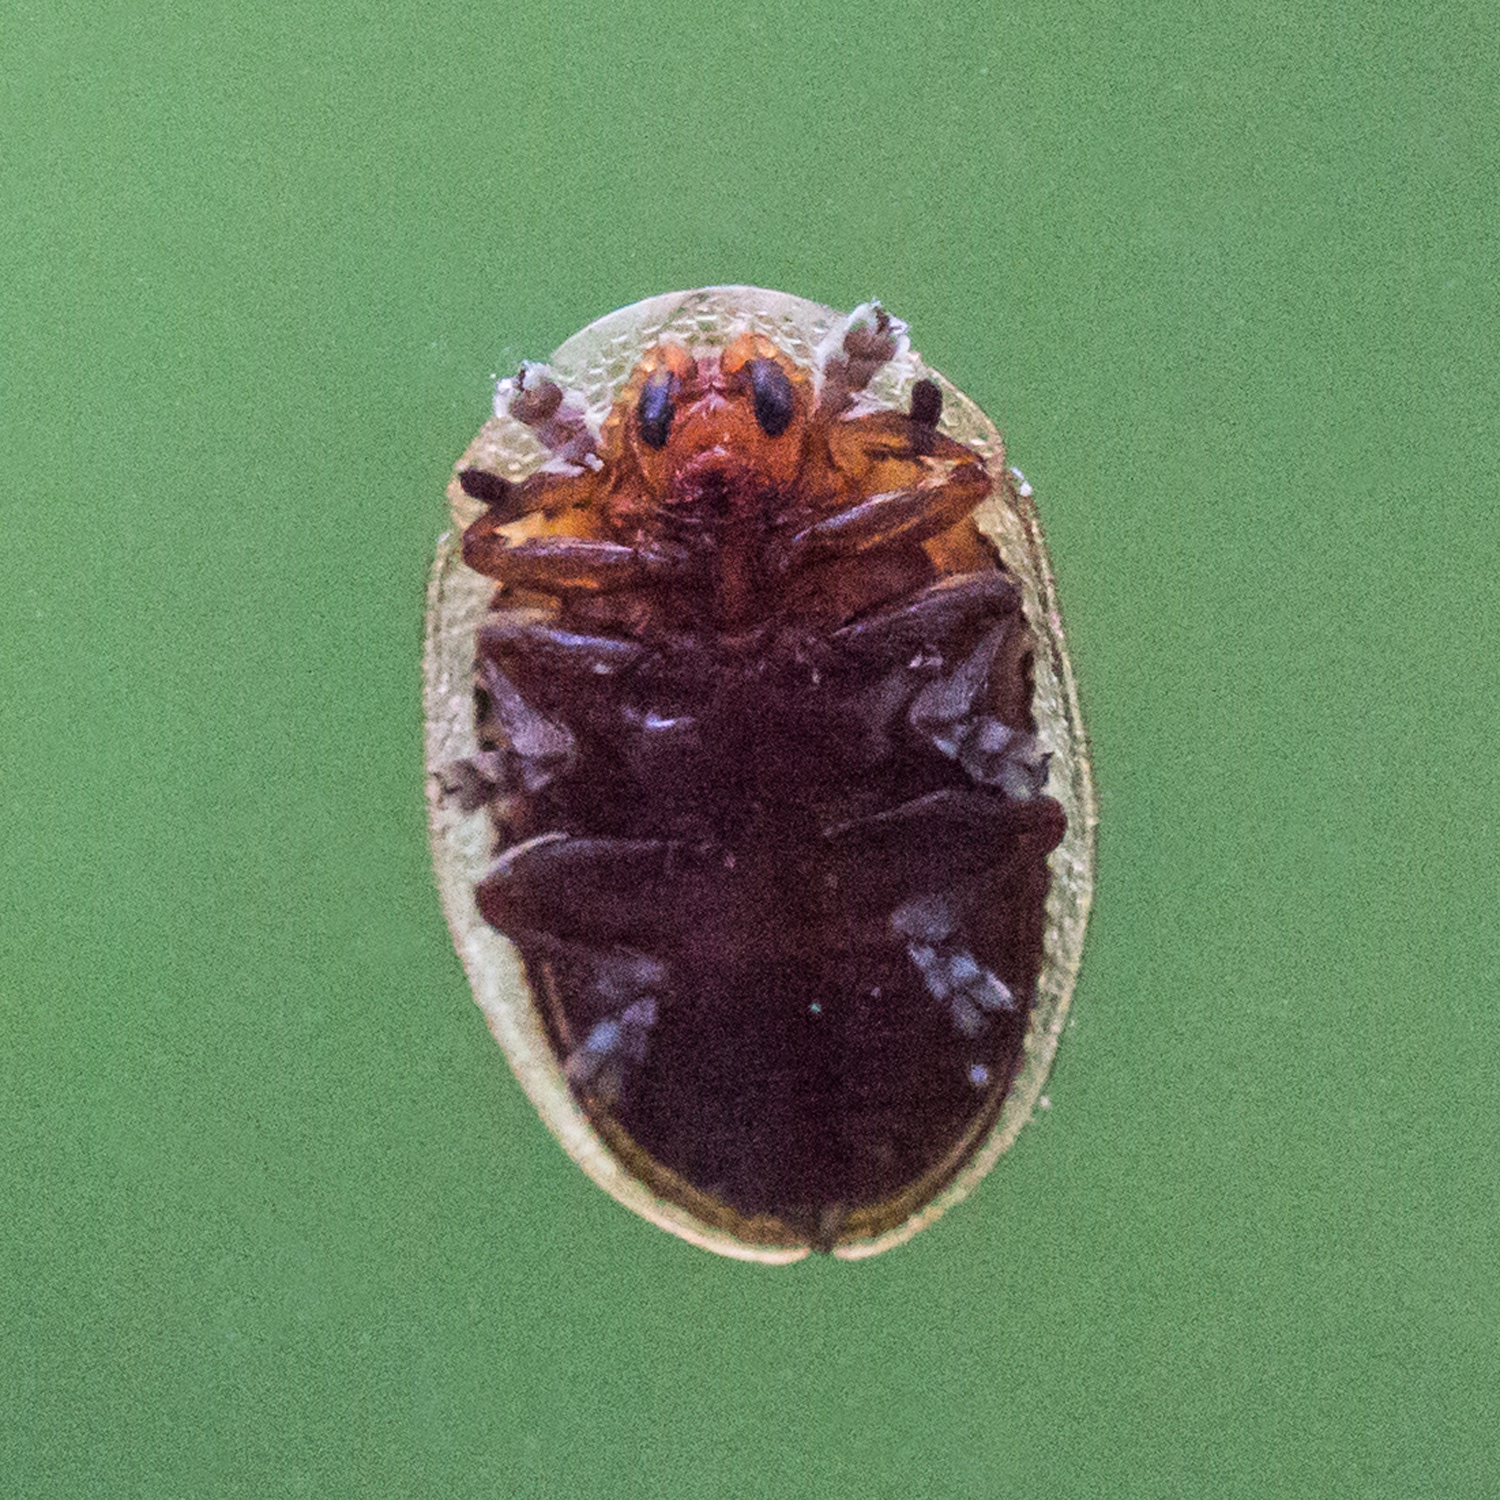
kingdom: Animalia
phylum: Arthropoda
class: Insecta
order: Coleoptera
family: Chrysomelidae
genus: Agroiconota
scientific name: Agroiconota bivittata
